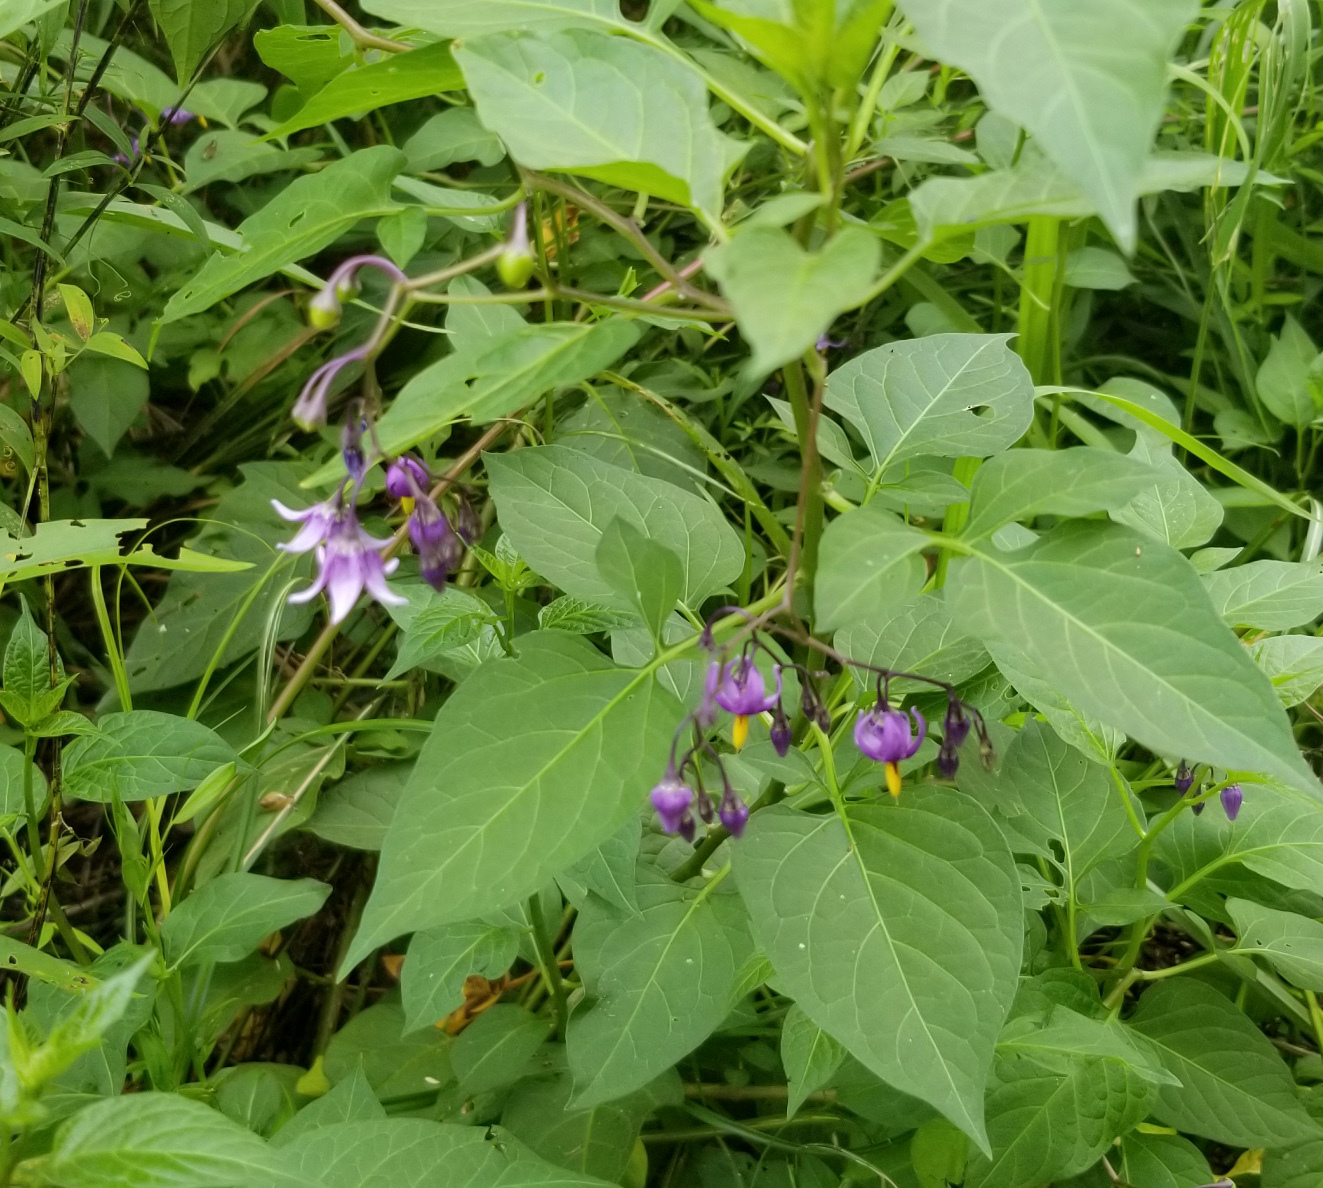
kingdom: Plantae
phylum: Tracheophyta
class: Magnoliopsida
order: Solanales
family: Solanaceae
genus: Solanum
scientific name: Solanum dulcamara
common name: Climbing nightshade
